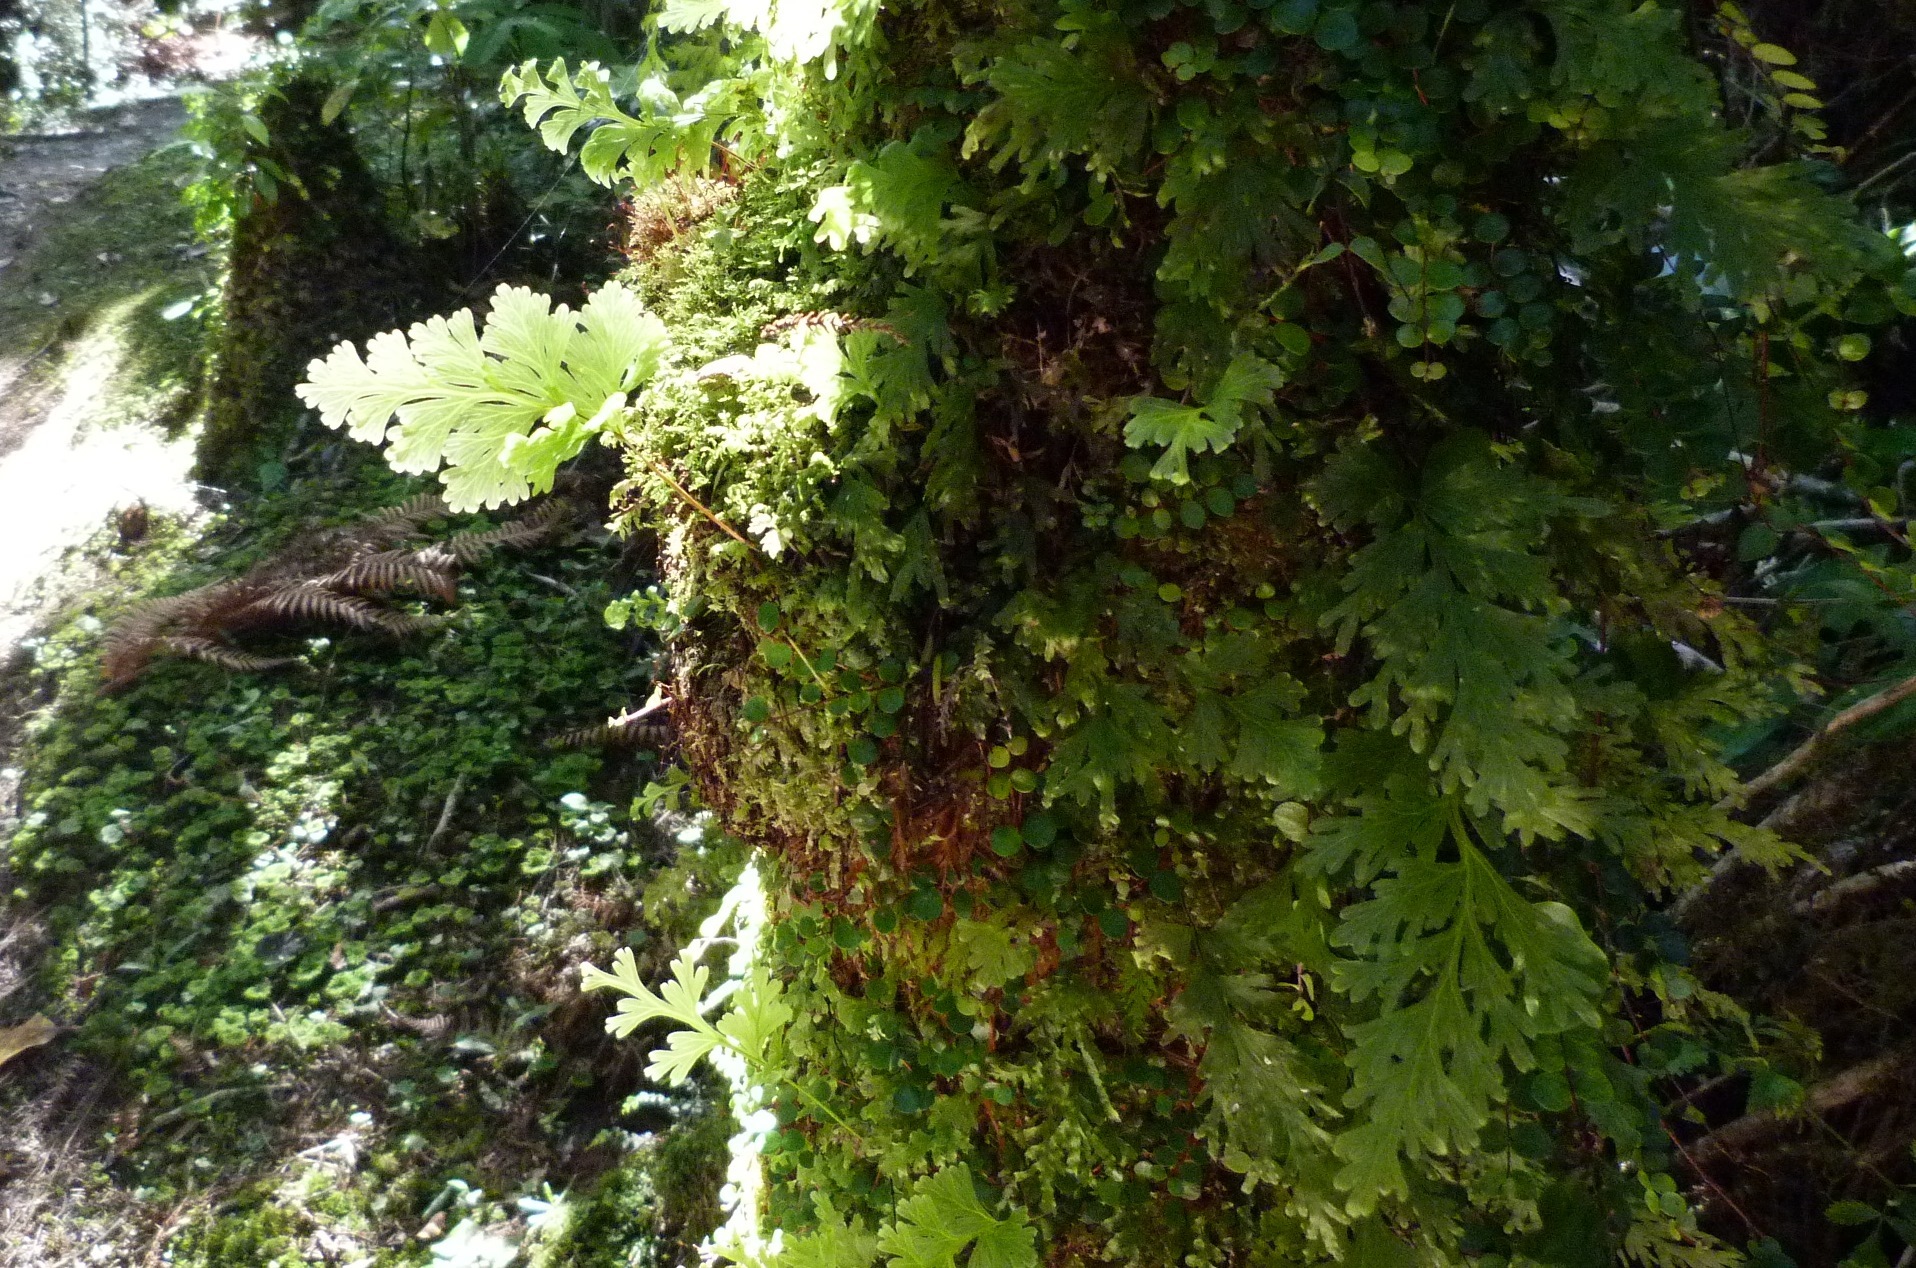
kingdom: Plantae
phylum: Tracheophyta
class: Polypodiopsida
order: Hymenophyllales
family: Hymenophyllaceae
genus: Hymenophyllum
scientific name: Hymenophyllum dilatatum
